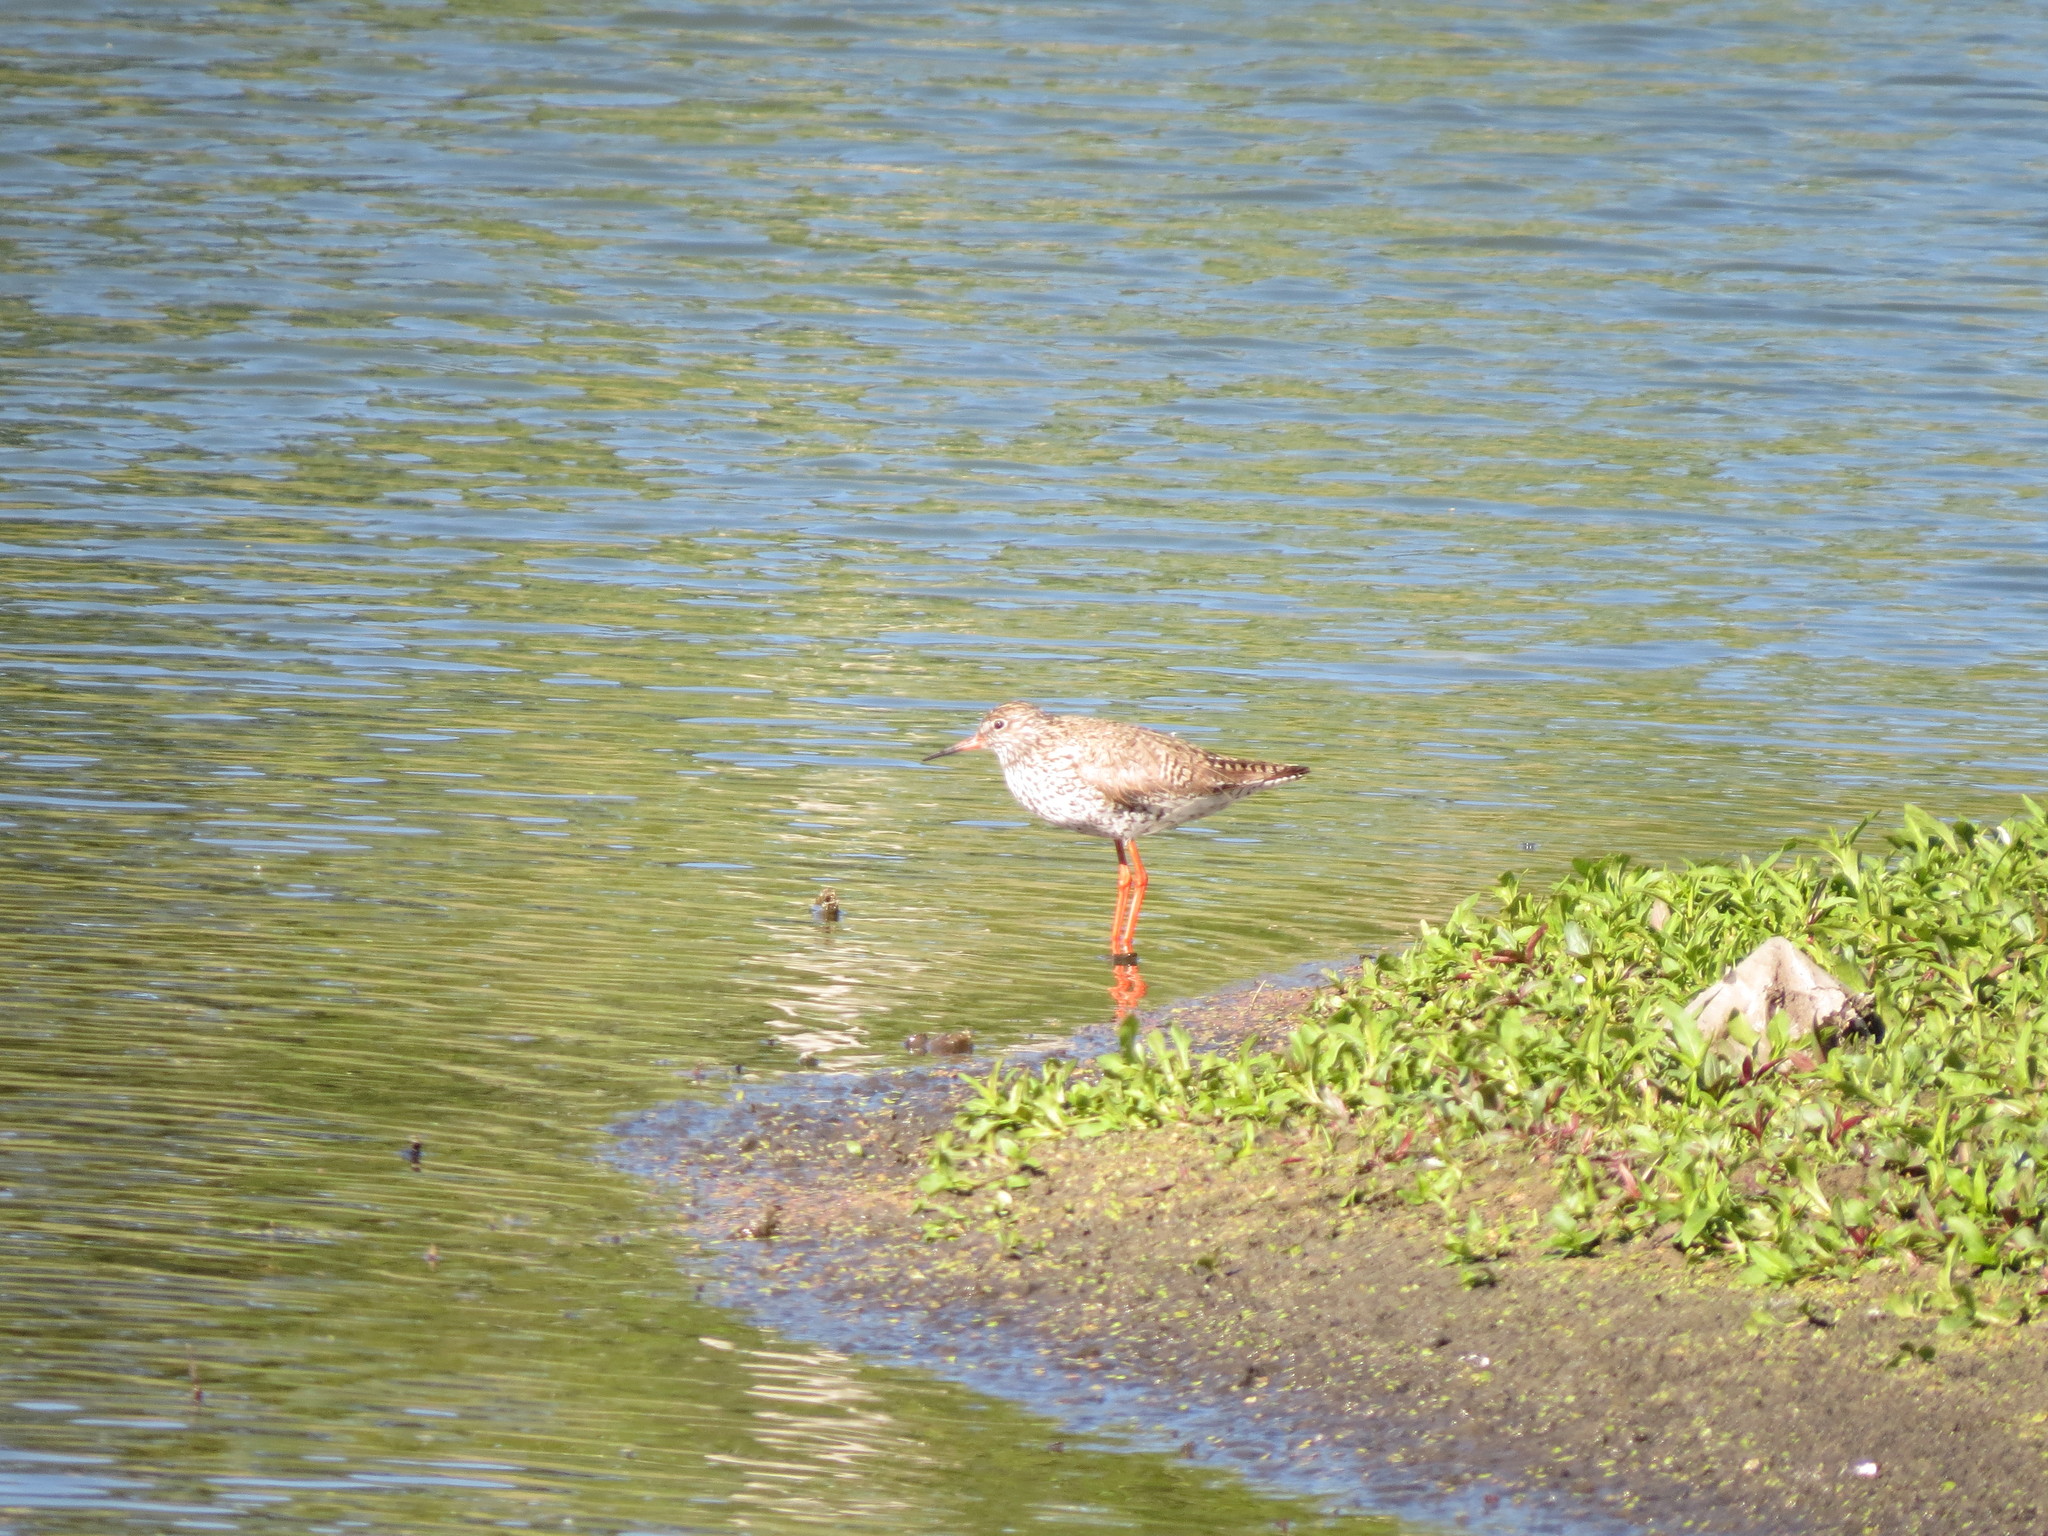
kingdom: Animalia
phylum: Chordata
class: Aves
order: Charadriiformes
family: Scolopacidae
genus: Tringa
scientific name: Tringa totanus
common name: Common redshank
